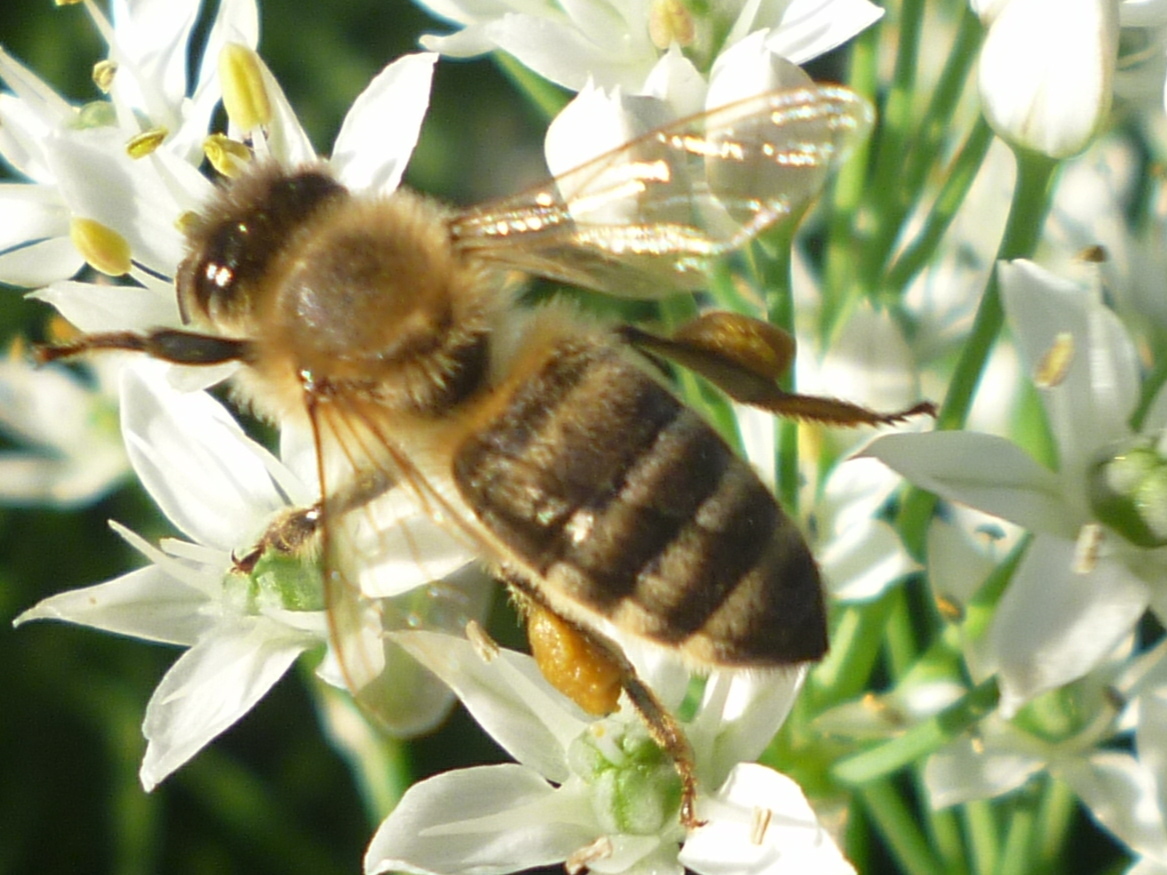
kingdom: Animalia
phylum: Arthropoda
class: Insecta
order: Hymenoptera
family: Apidae
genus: Apis
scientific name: Apis mellifera
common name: Honey bee
